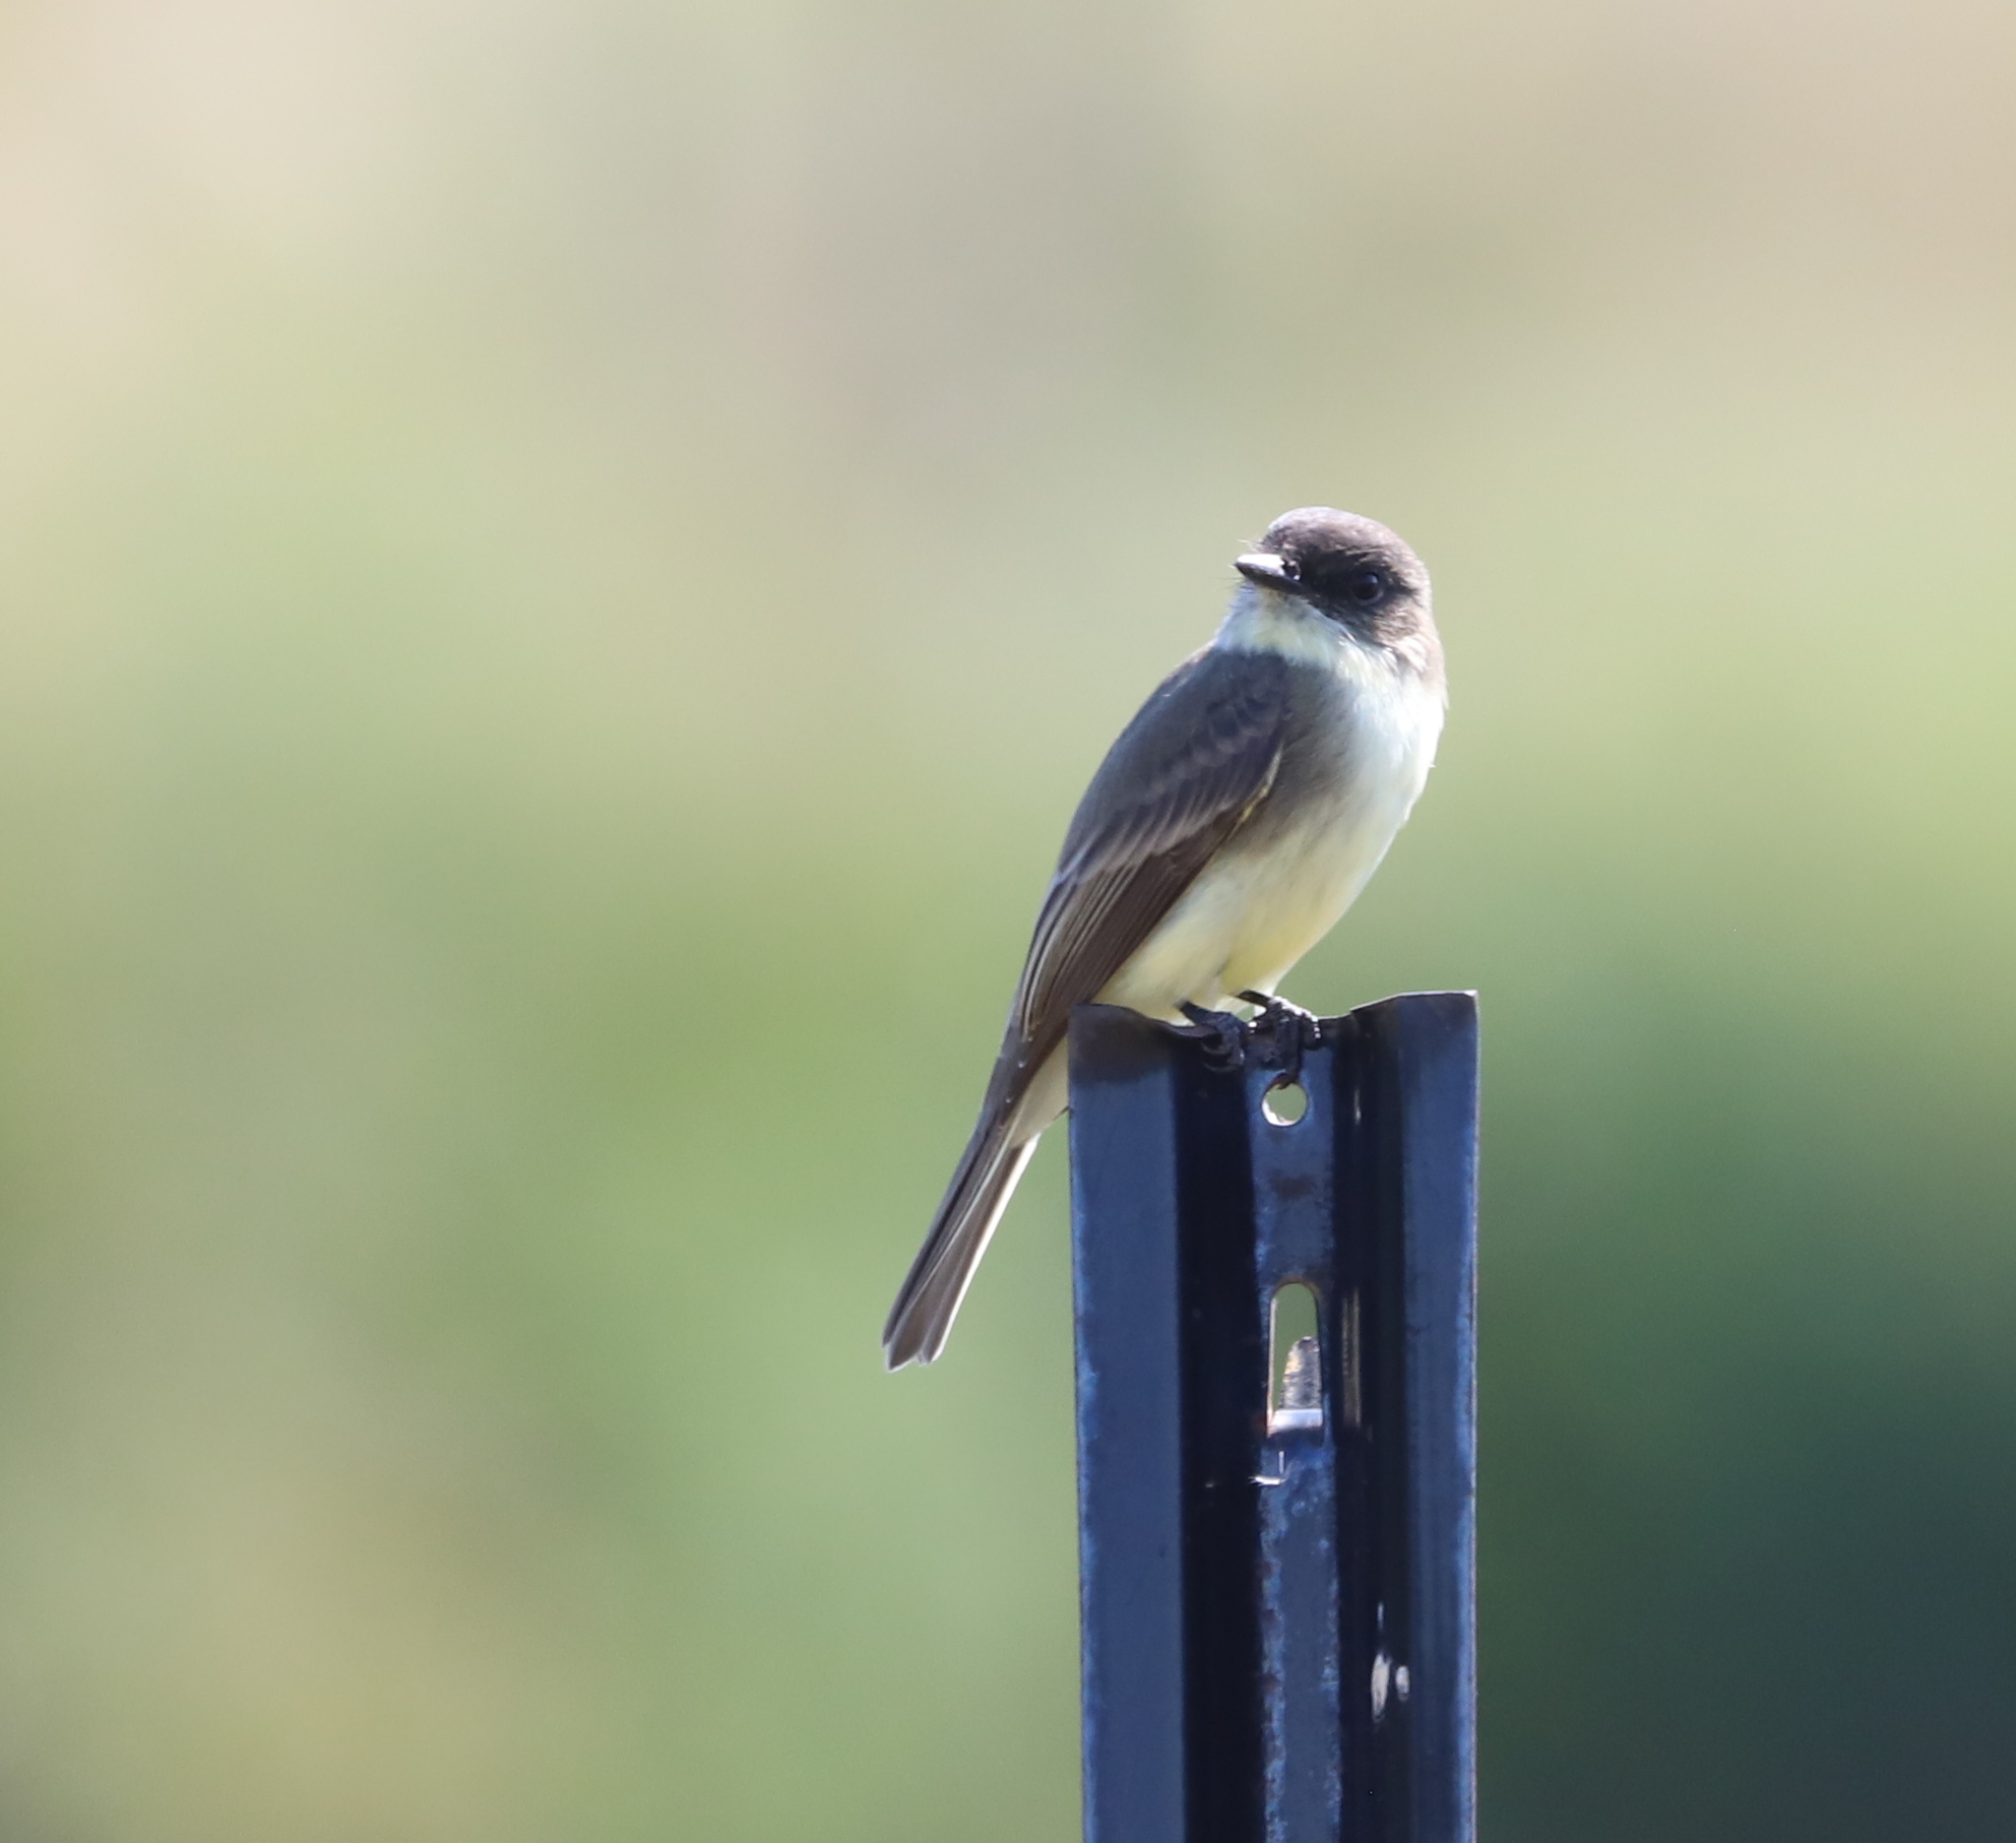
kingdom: Animalia
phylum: Chordata
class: Aves
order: Passeriformes
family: Tyrannidae
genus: Sayornis
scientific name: Sayornis phoebe
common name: Eastern phoebe
